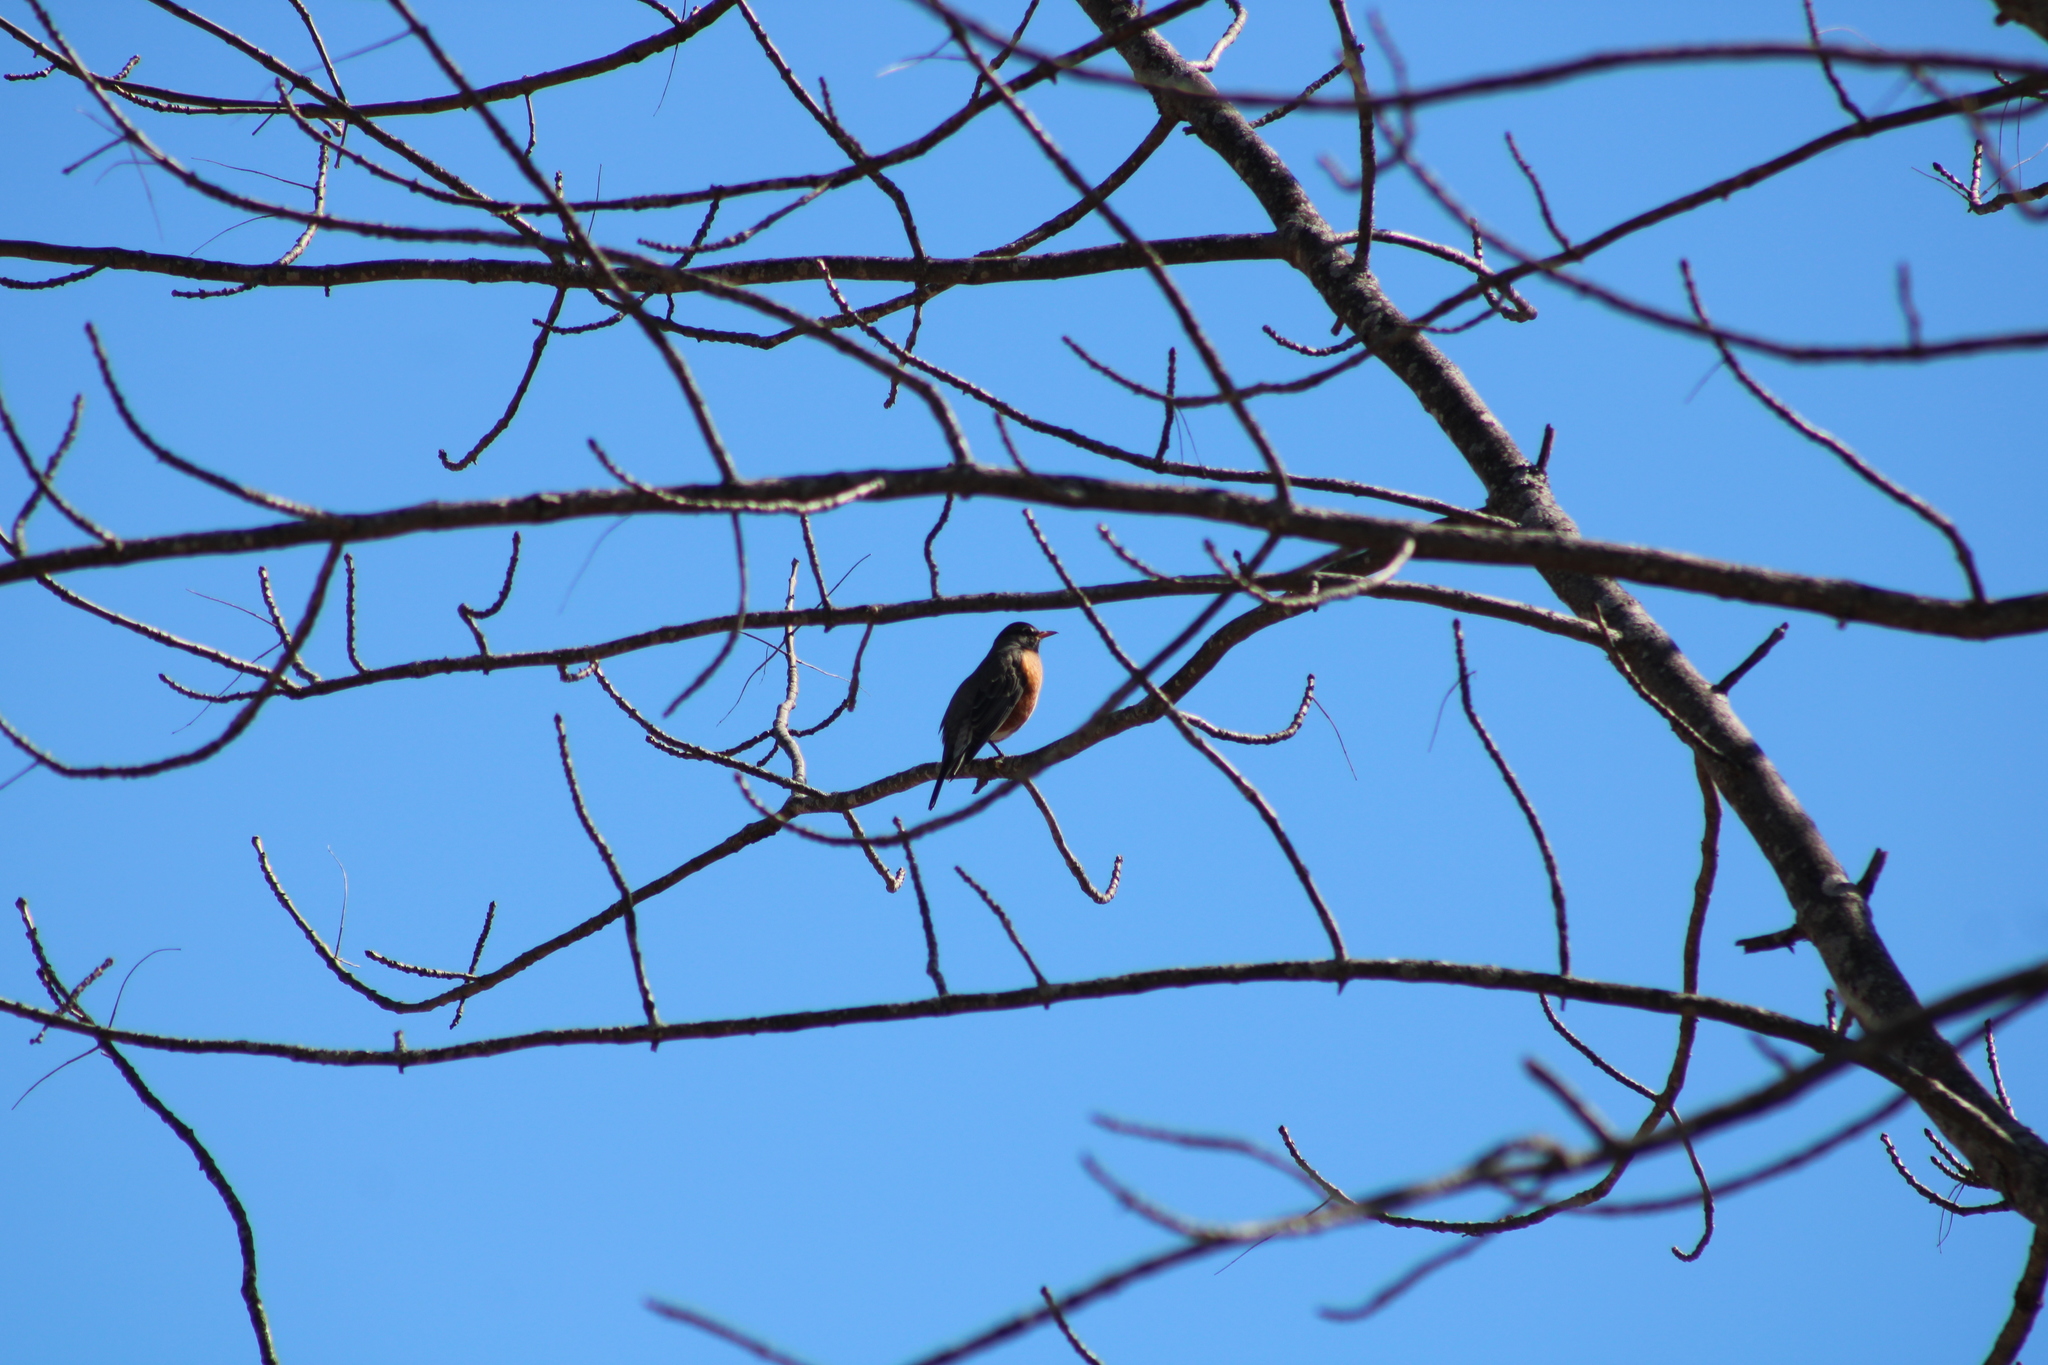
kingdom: Animalia
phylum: Chordata
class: Aves
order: Passeriformes
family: Turdidae
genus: Turdus
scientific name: Turdus migratorius
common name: American robin
